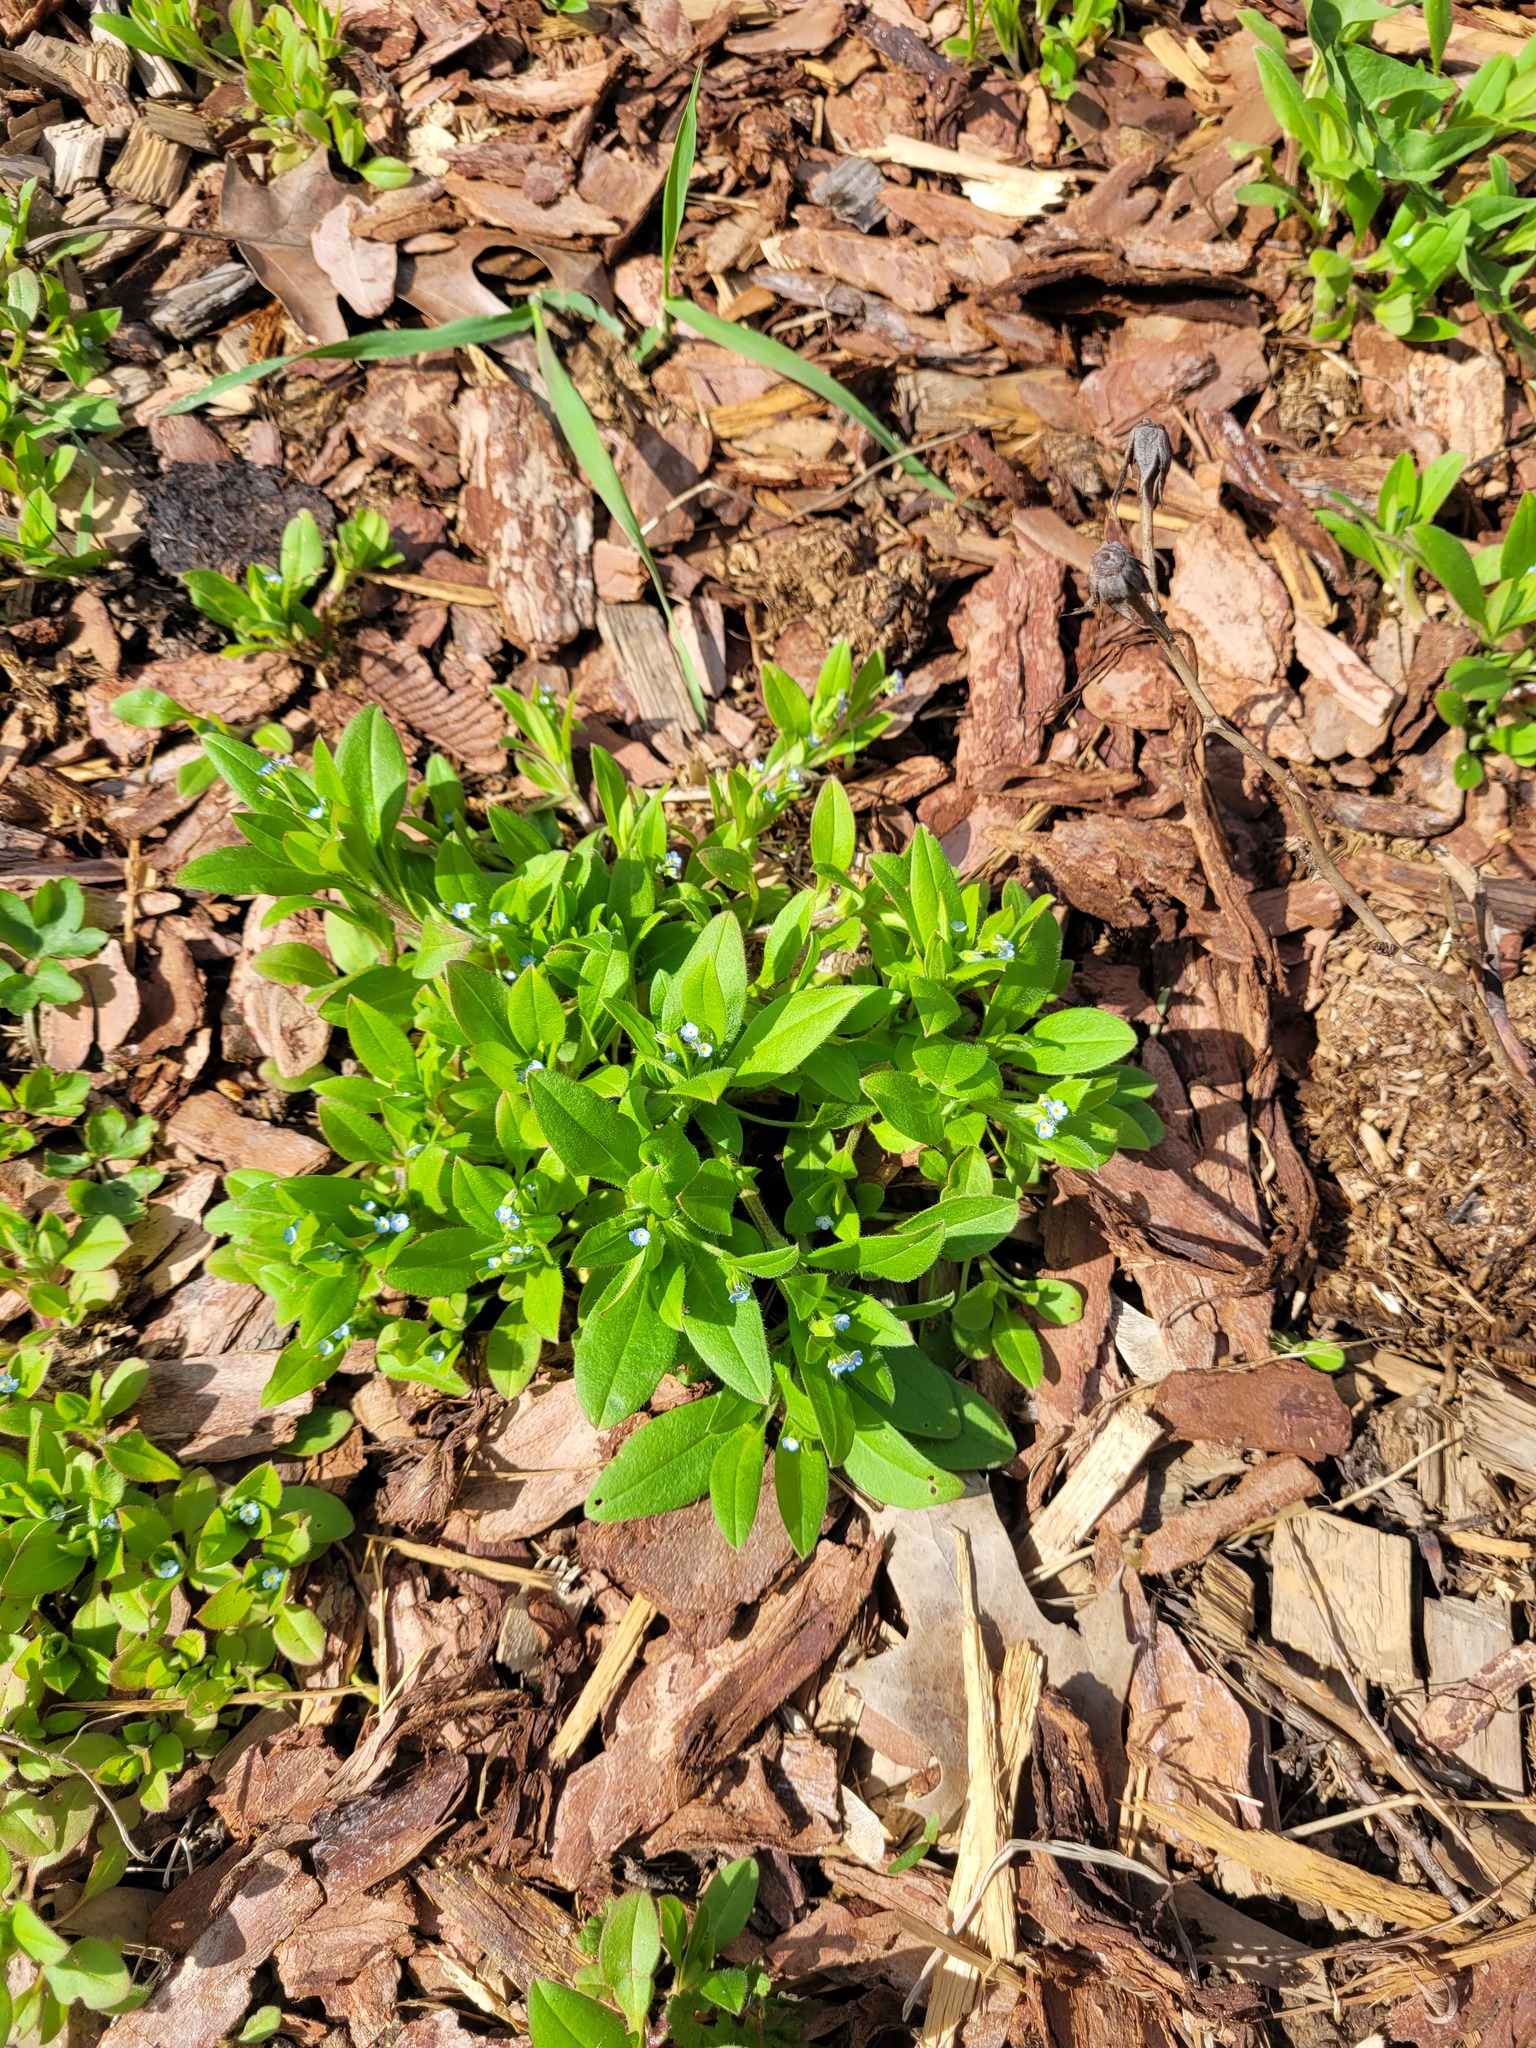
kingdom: Plantae
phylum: Tracheophyta
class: Magnoliopsida
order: Boraginales
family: Boraginaceae
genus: Myosotis
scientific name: Myosotis sparsiflora
